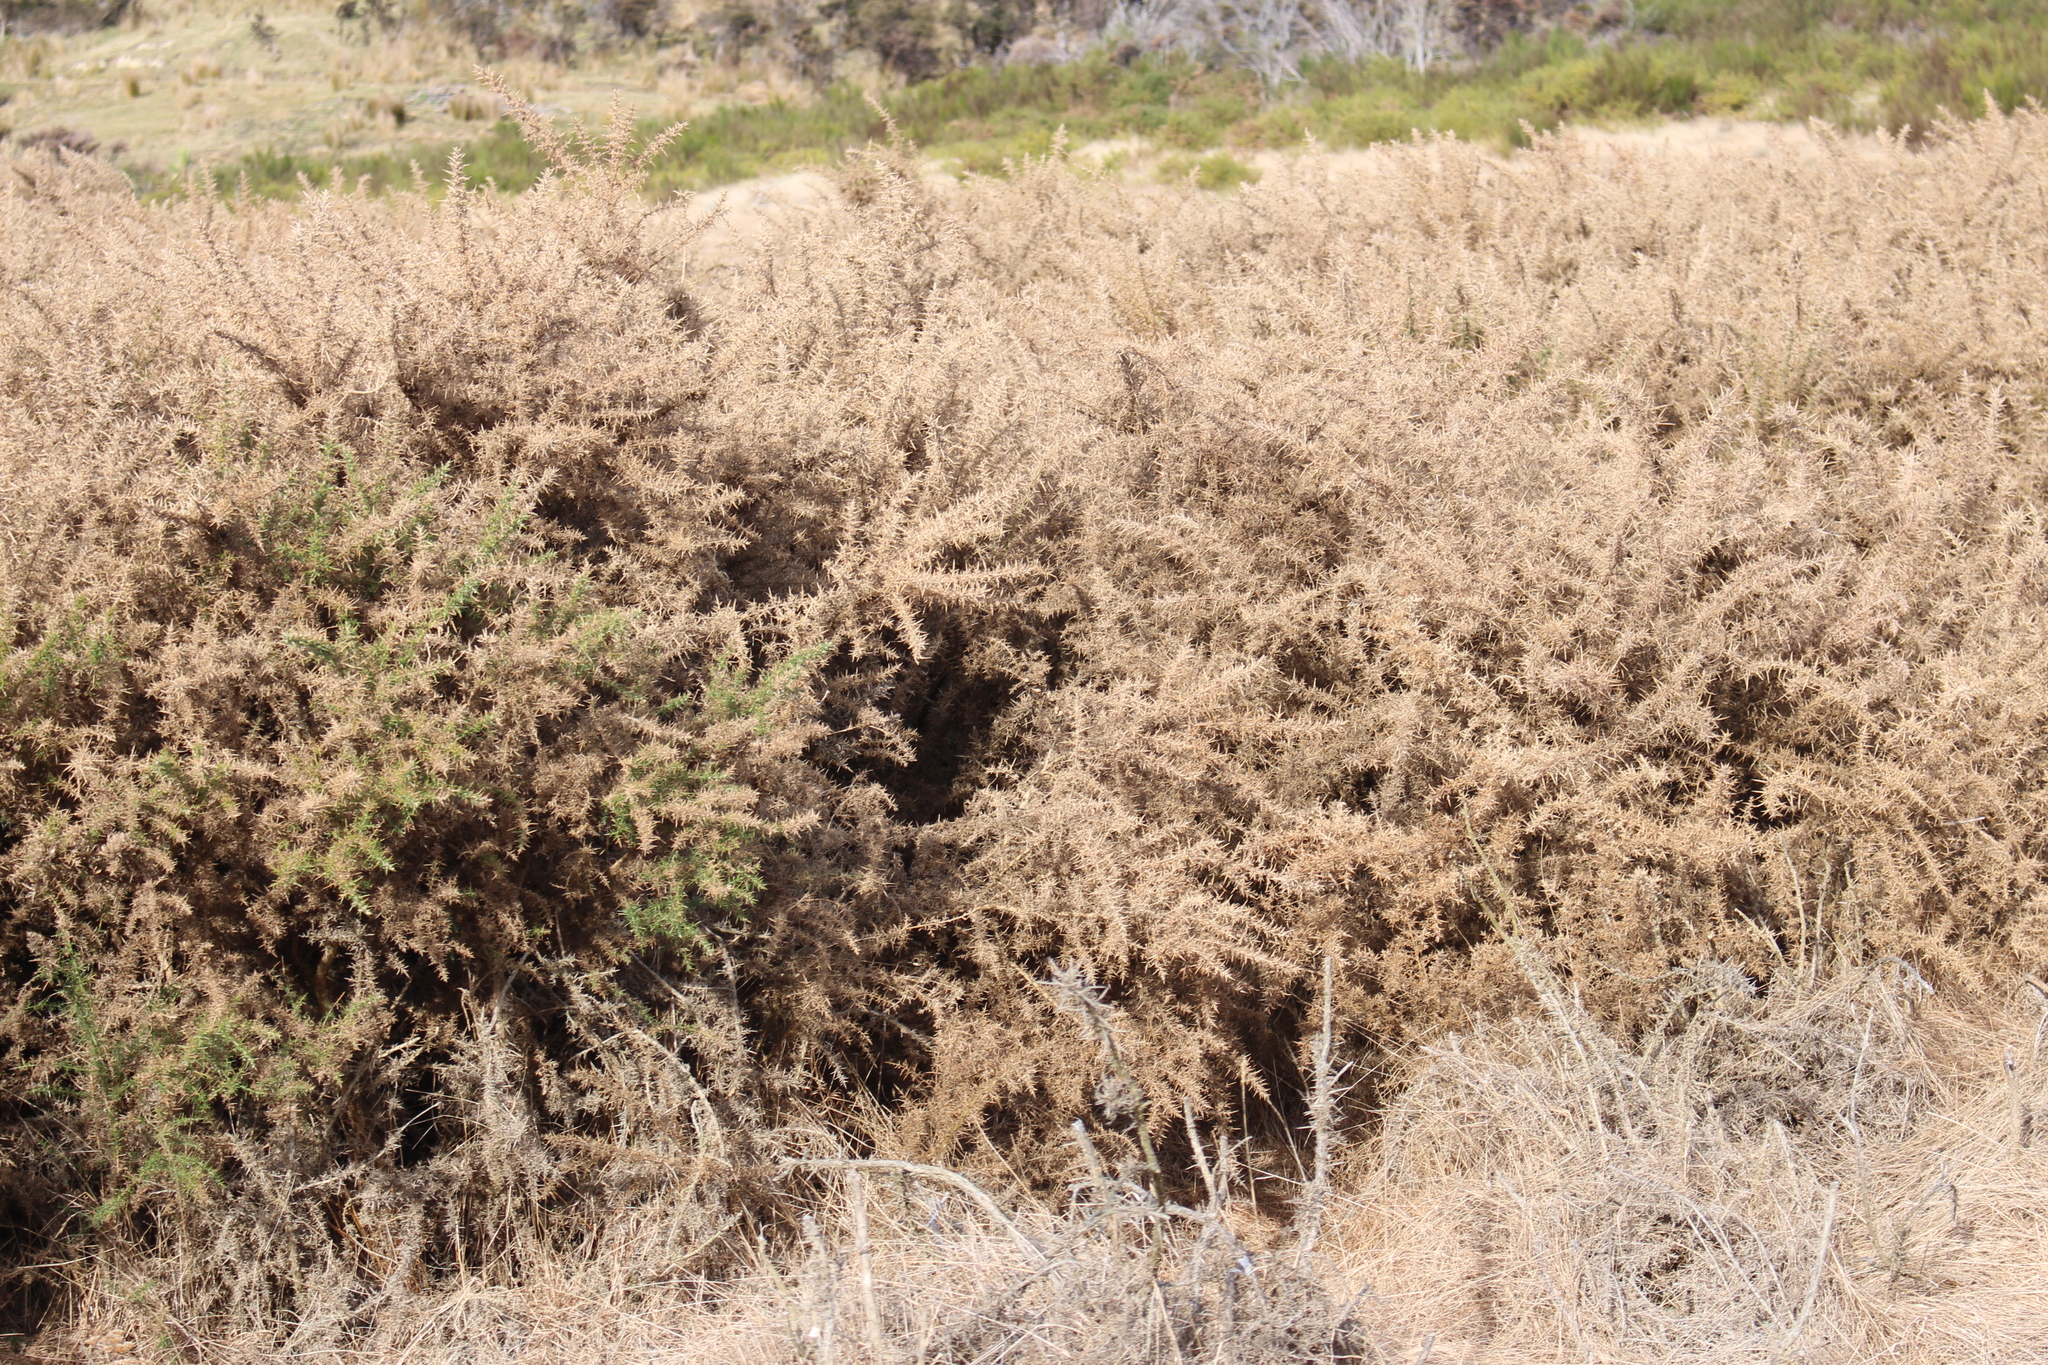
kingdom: Plantae
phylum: Tracheophyta
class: Magnoliopsida
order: Fabales
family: Fabaceae
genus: Ulex
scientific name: Ulex europaeus
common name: Common gorse
